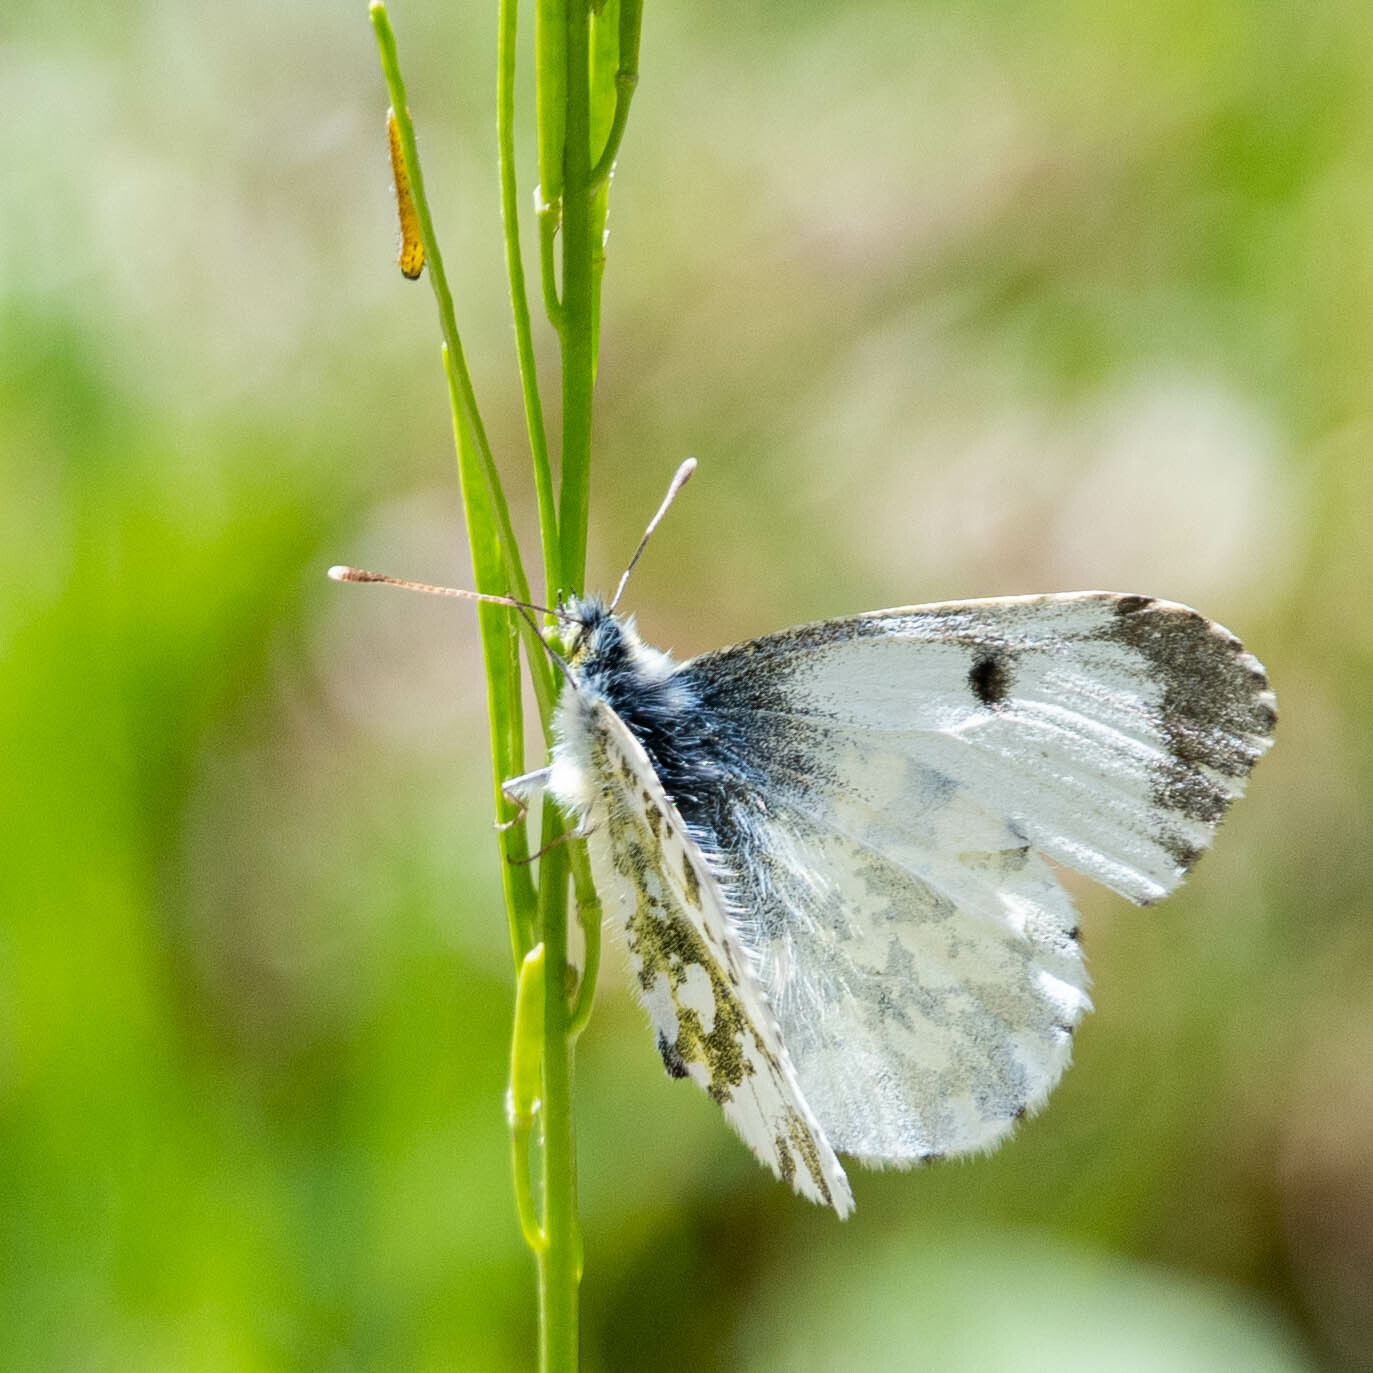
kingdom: Animalia
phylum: Arthropoda
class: Insecta
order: Lepidoptera
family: Pieridae
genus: Anthocharis
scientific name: Anthocharis cardamines
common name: Orange-tip
